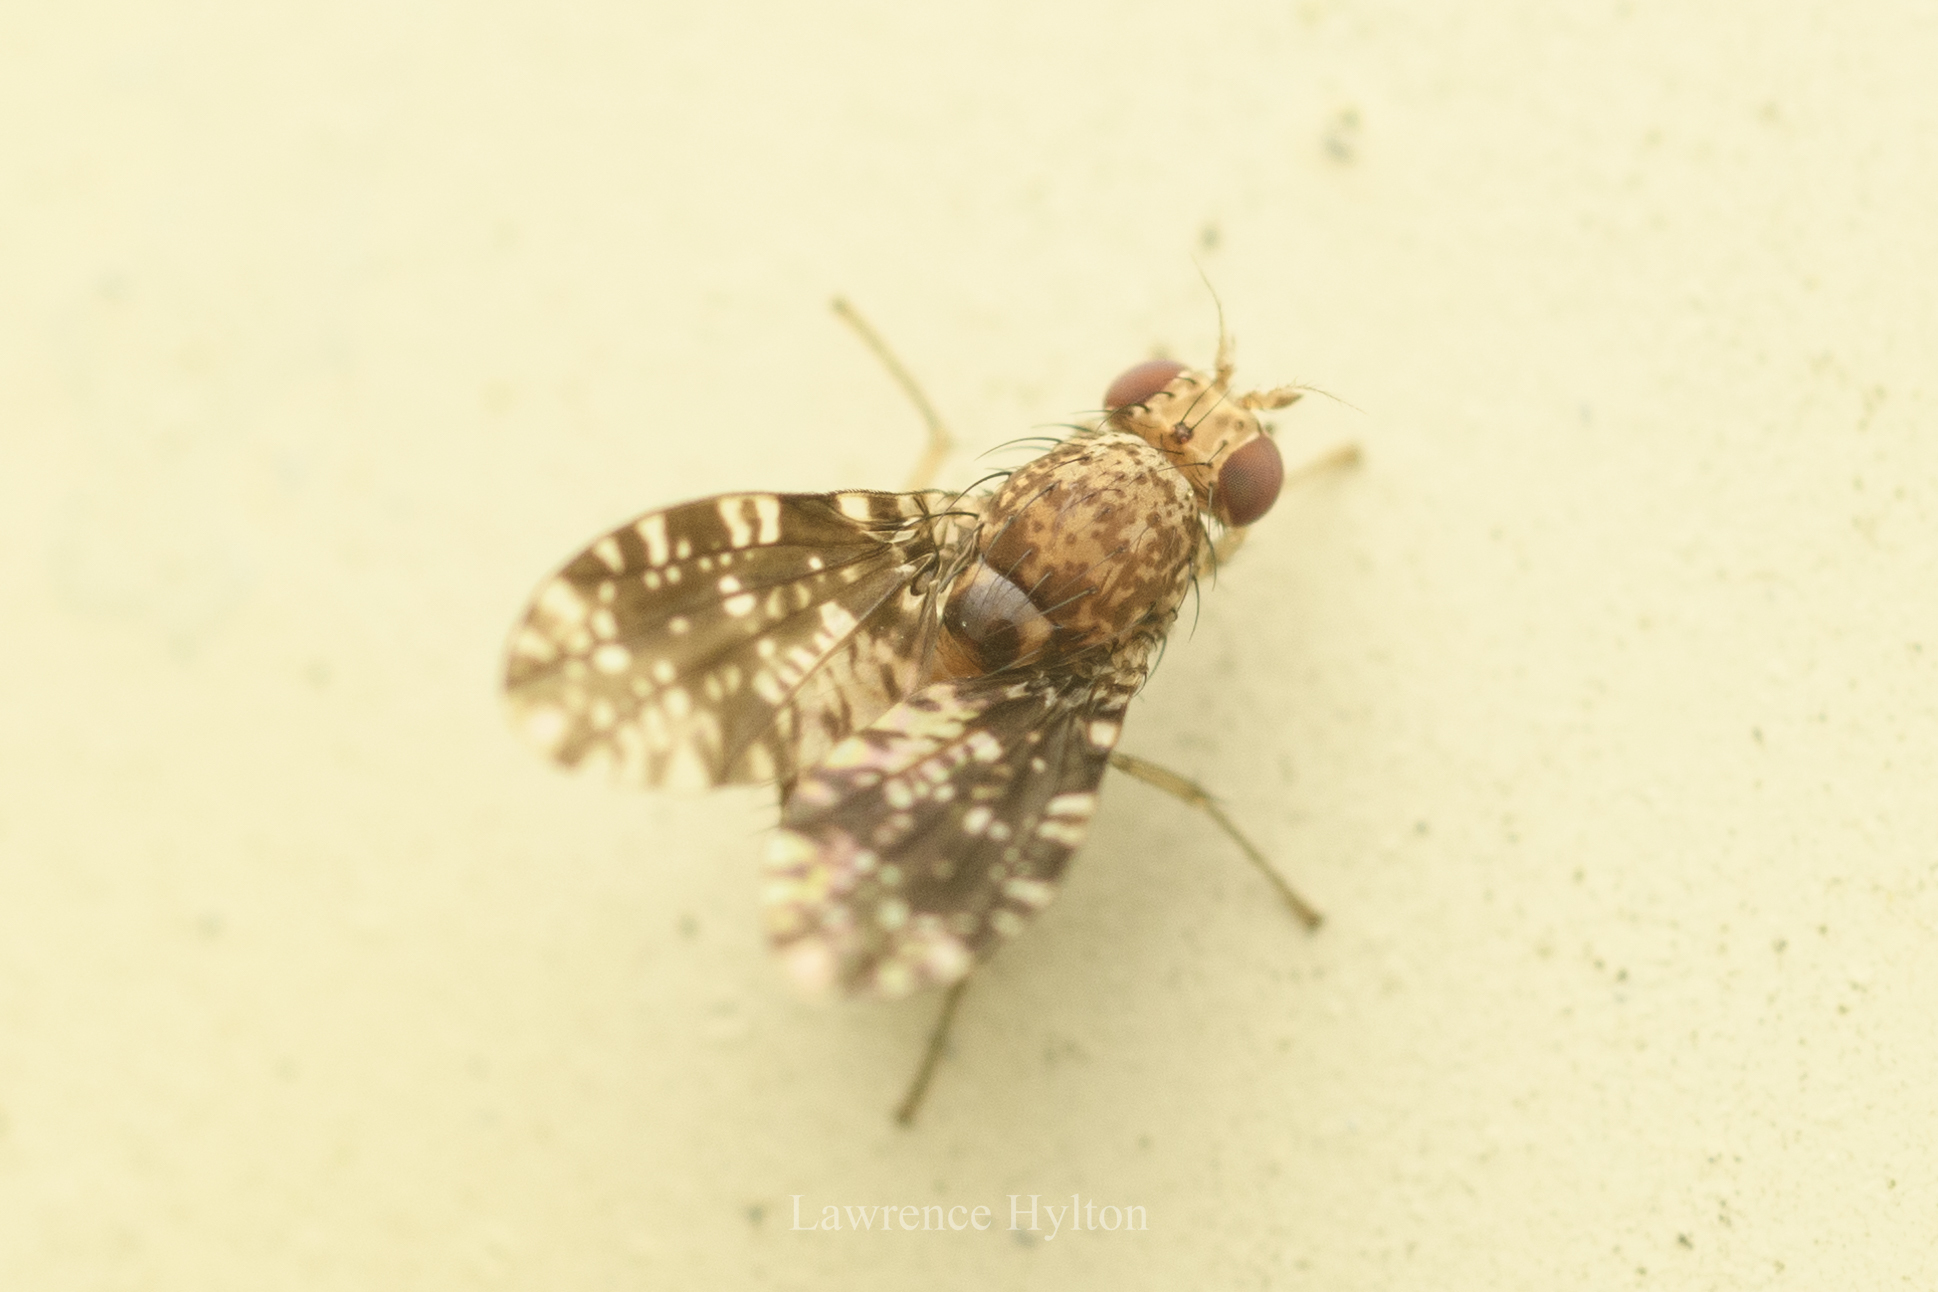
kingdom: Animalia
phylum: Arthropoda
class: Insecta
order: Diptera
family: Lauxaniidae
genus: Homoneura
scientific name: Homoneura trypetoptera
